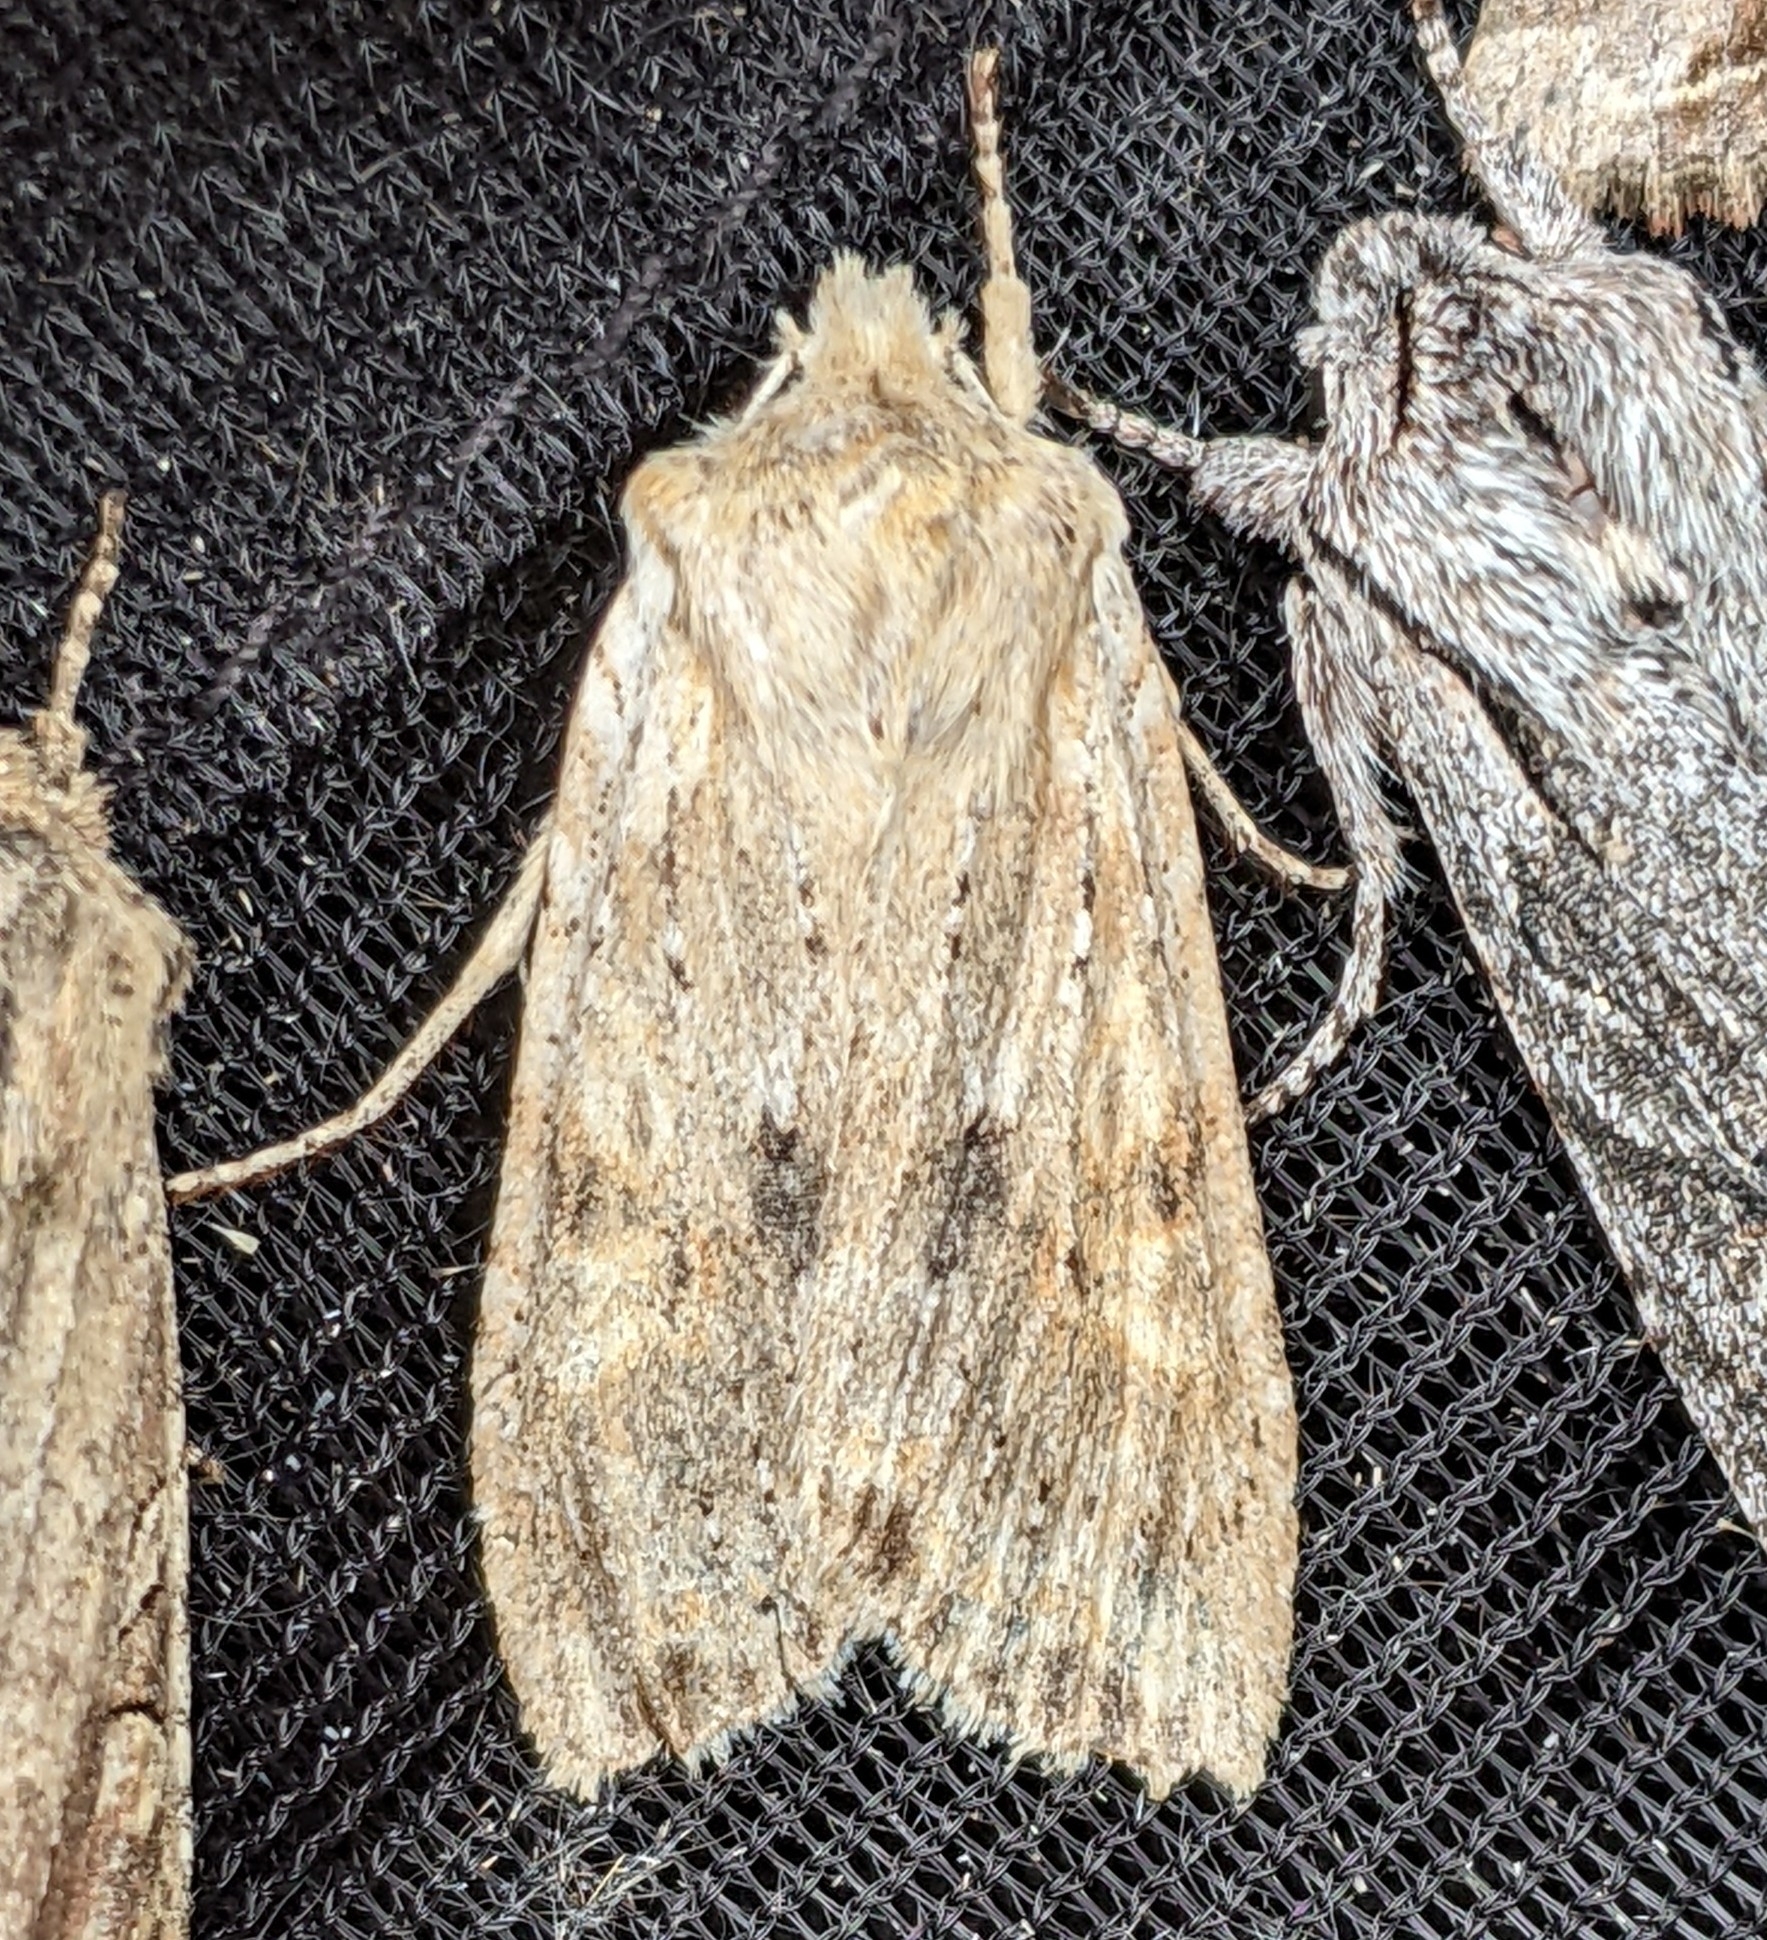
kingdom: Animalia
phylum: Arthropoda
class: Insecta
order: Lepidoptera
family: Noctuidae
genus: Lithophane
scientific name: Lithophane innominata
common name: Nameless pinion moth
